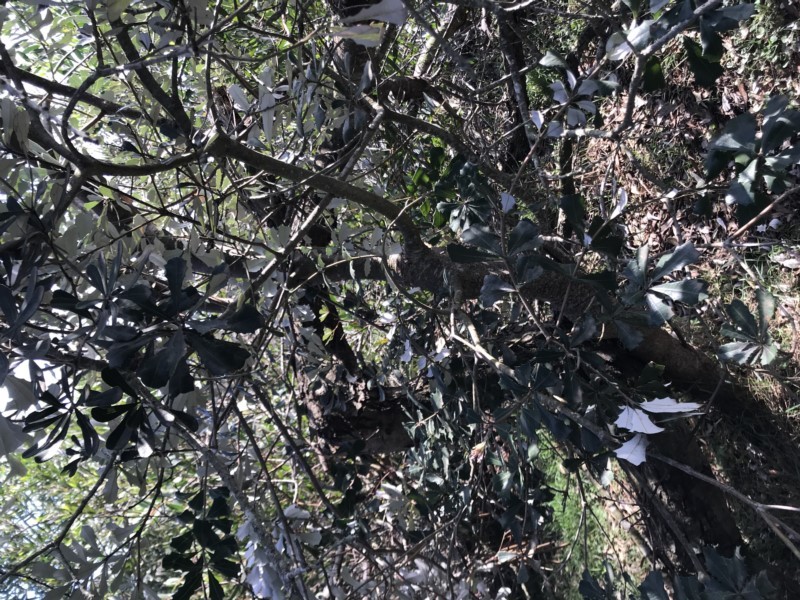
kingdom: Plantae
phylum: Tracheophyta
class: Magnoliopsida
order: Proteales
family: Proteaceae
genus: Banksia
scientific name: Banksia integrifolia
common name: White-honeysuckle
